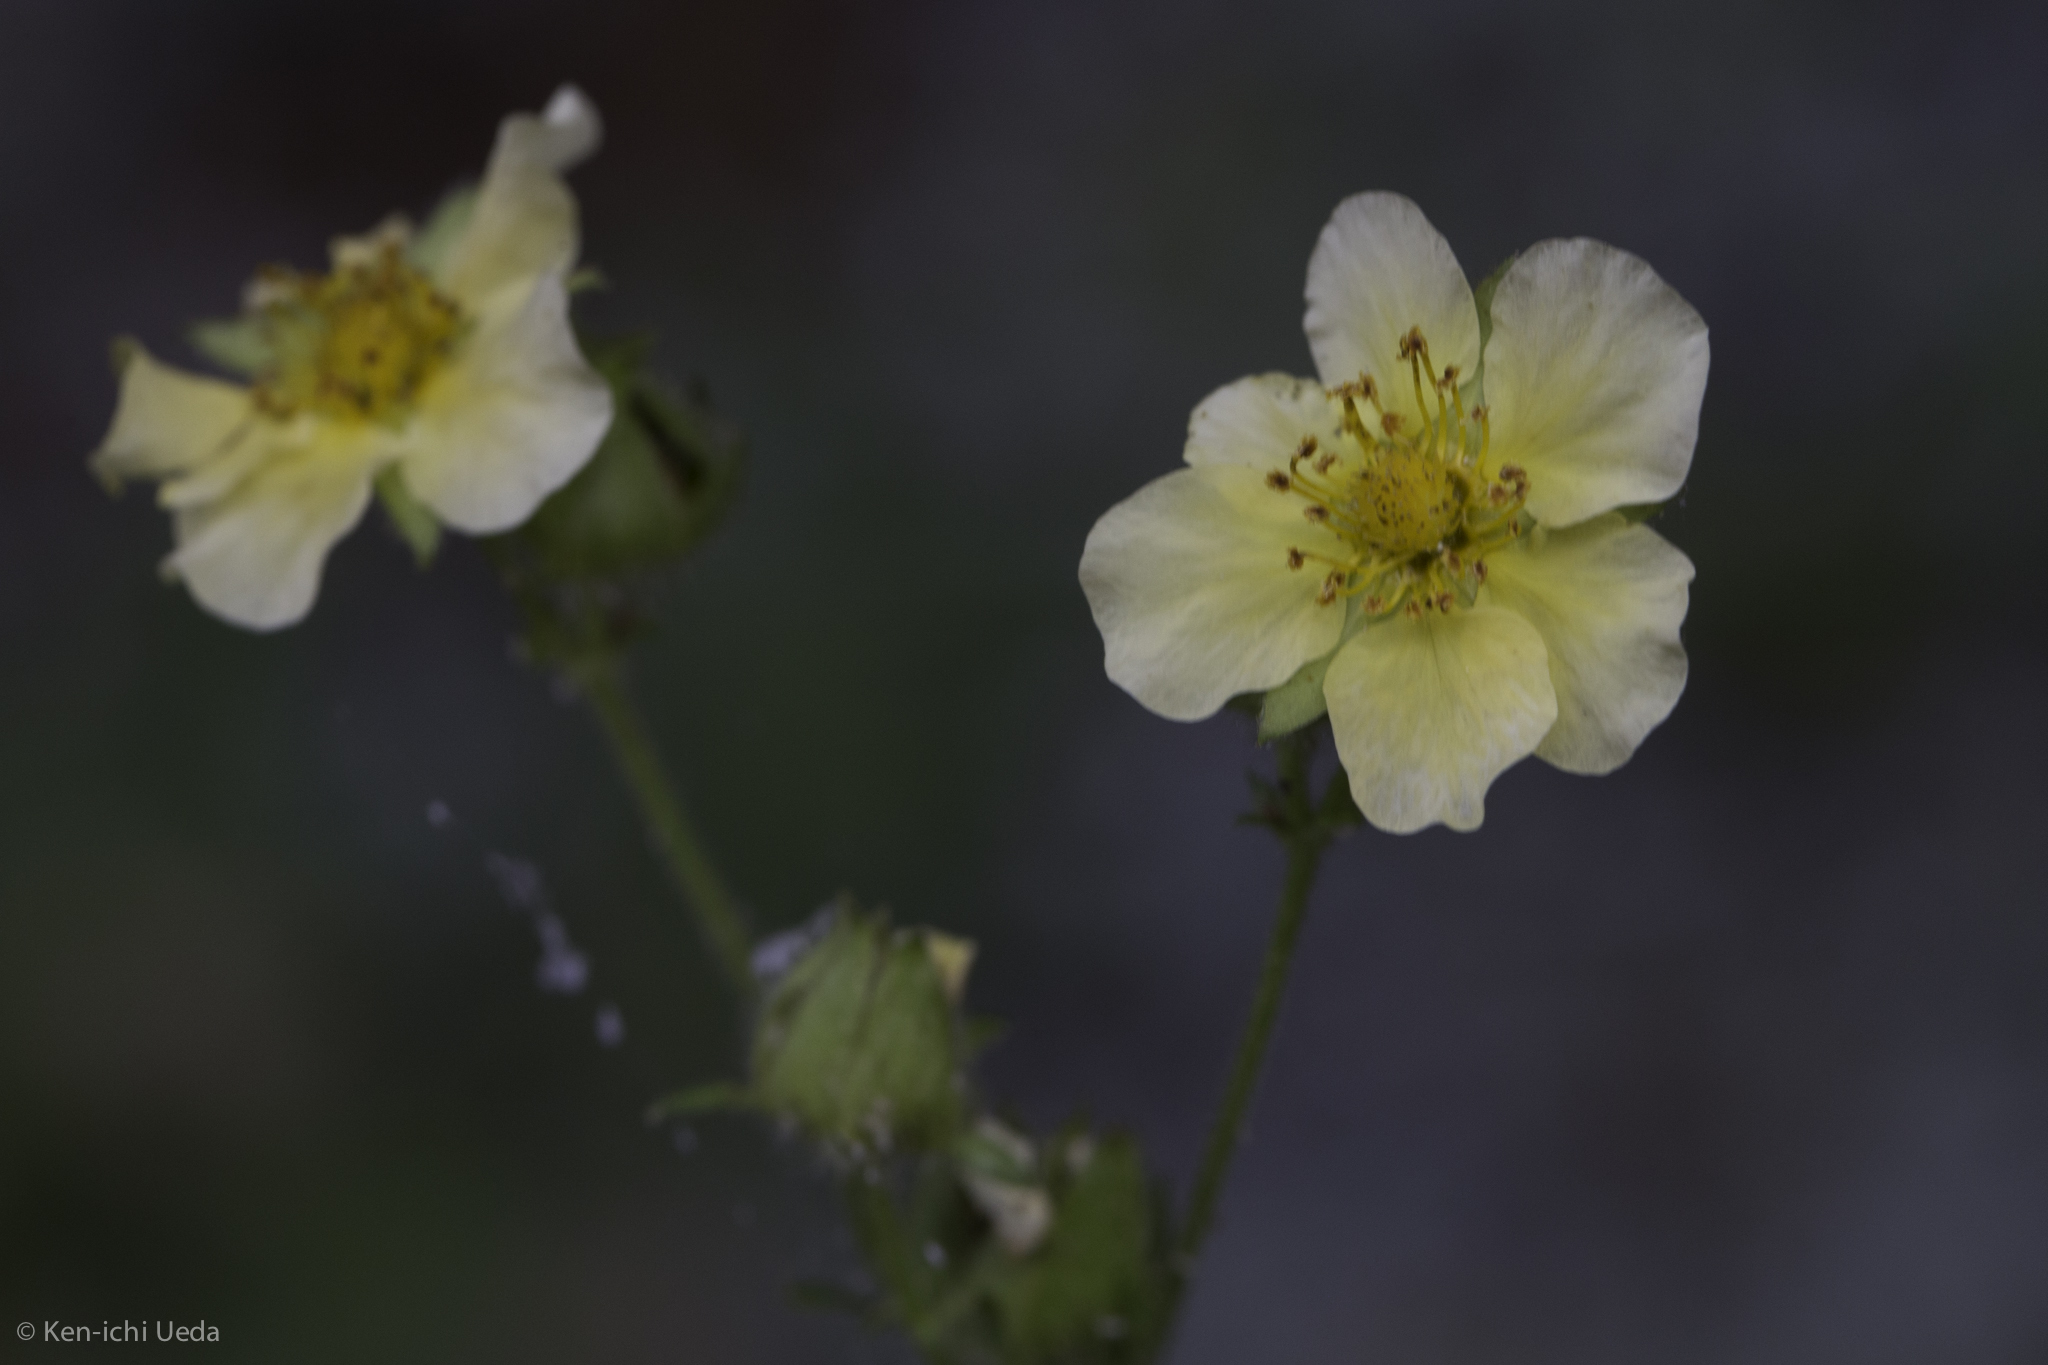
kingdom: Plantae
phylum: Tracheophyta
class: Magnoliopsida
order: Rosales
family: Rosaceae
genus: Drymocallis
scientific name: Drymocallis lactea
